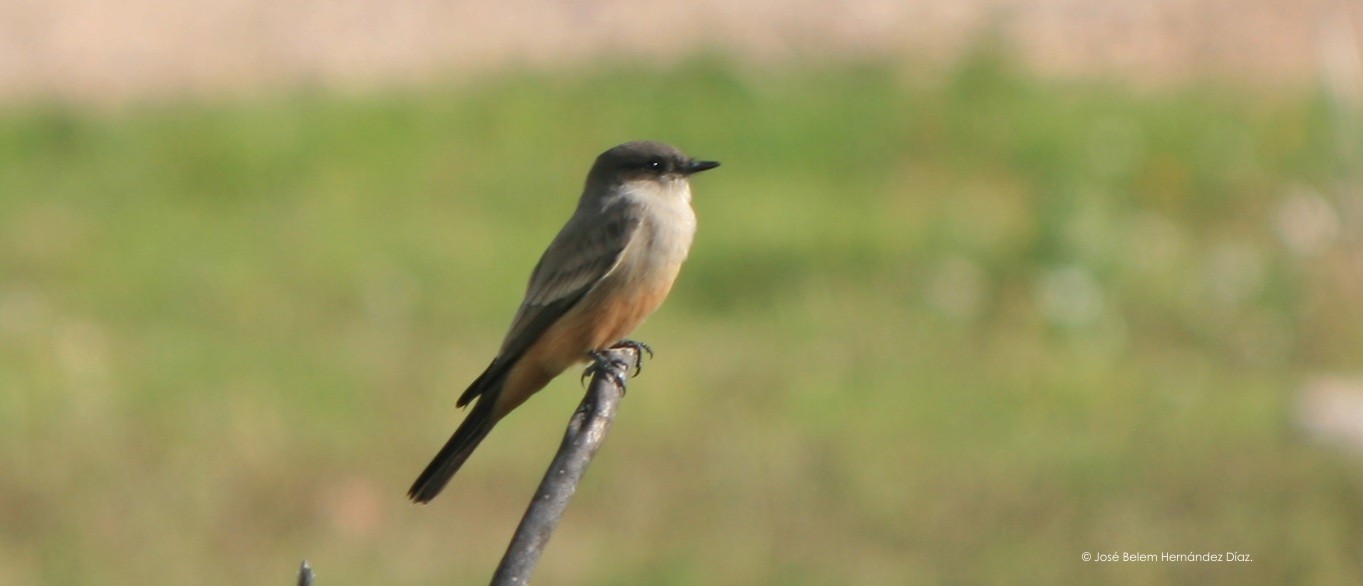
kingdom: Animalia
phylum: Chordata
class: Aves
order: Passeriformes
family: Tyrannidae
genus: Sayornis
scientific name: Sayornis saya
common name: Say's phoebe
